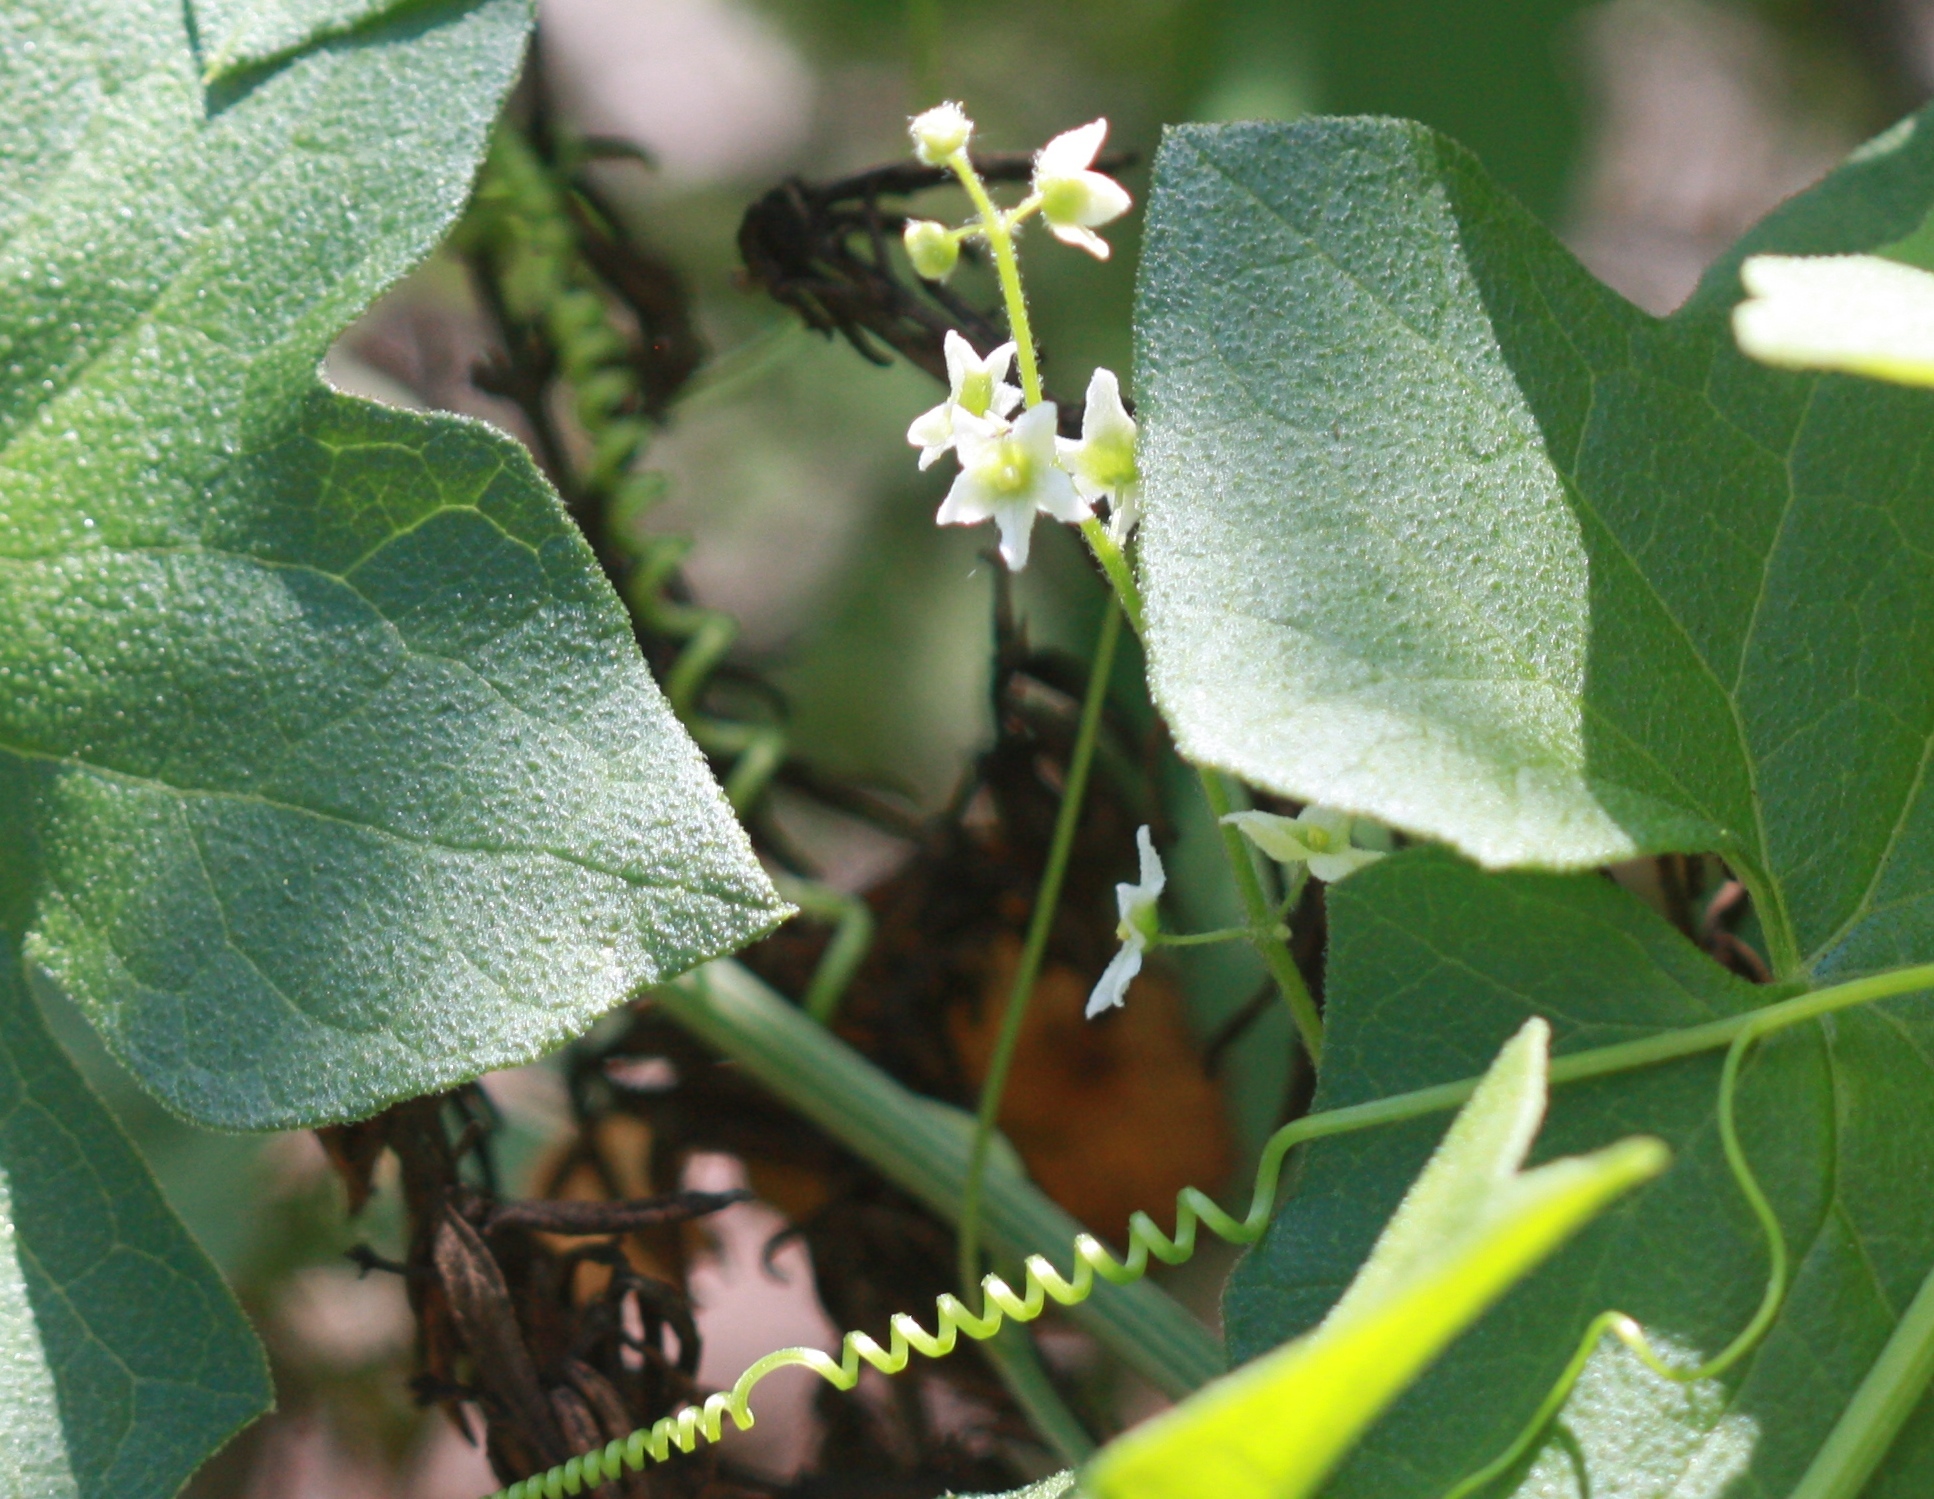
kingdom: Plantae
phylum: Tracheophyta
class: Magnoliopsida
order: Cucurbitales
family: Cucurbitaceae
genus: Marah
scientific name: Marah fabacea
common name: California manroot
